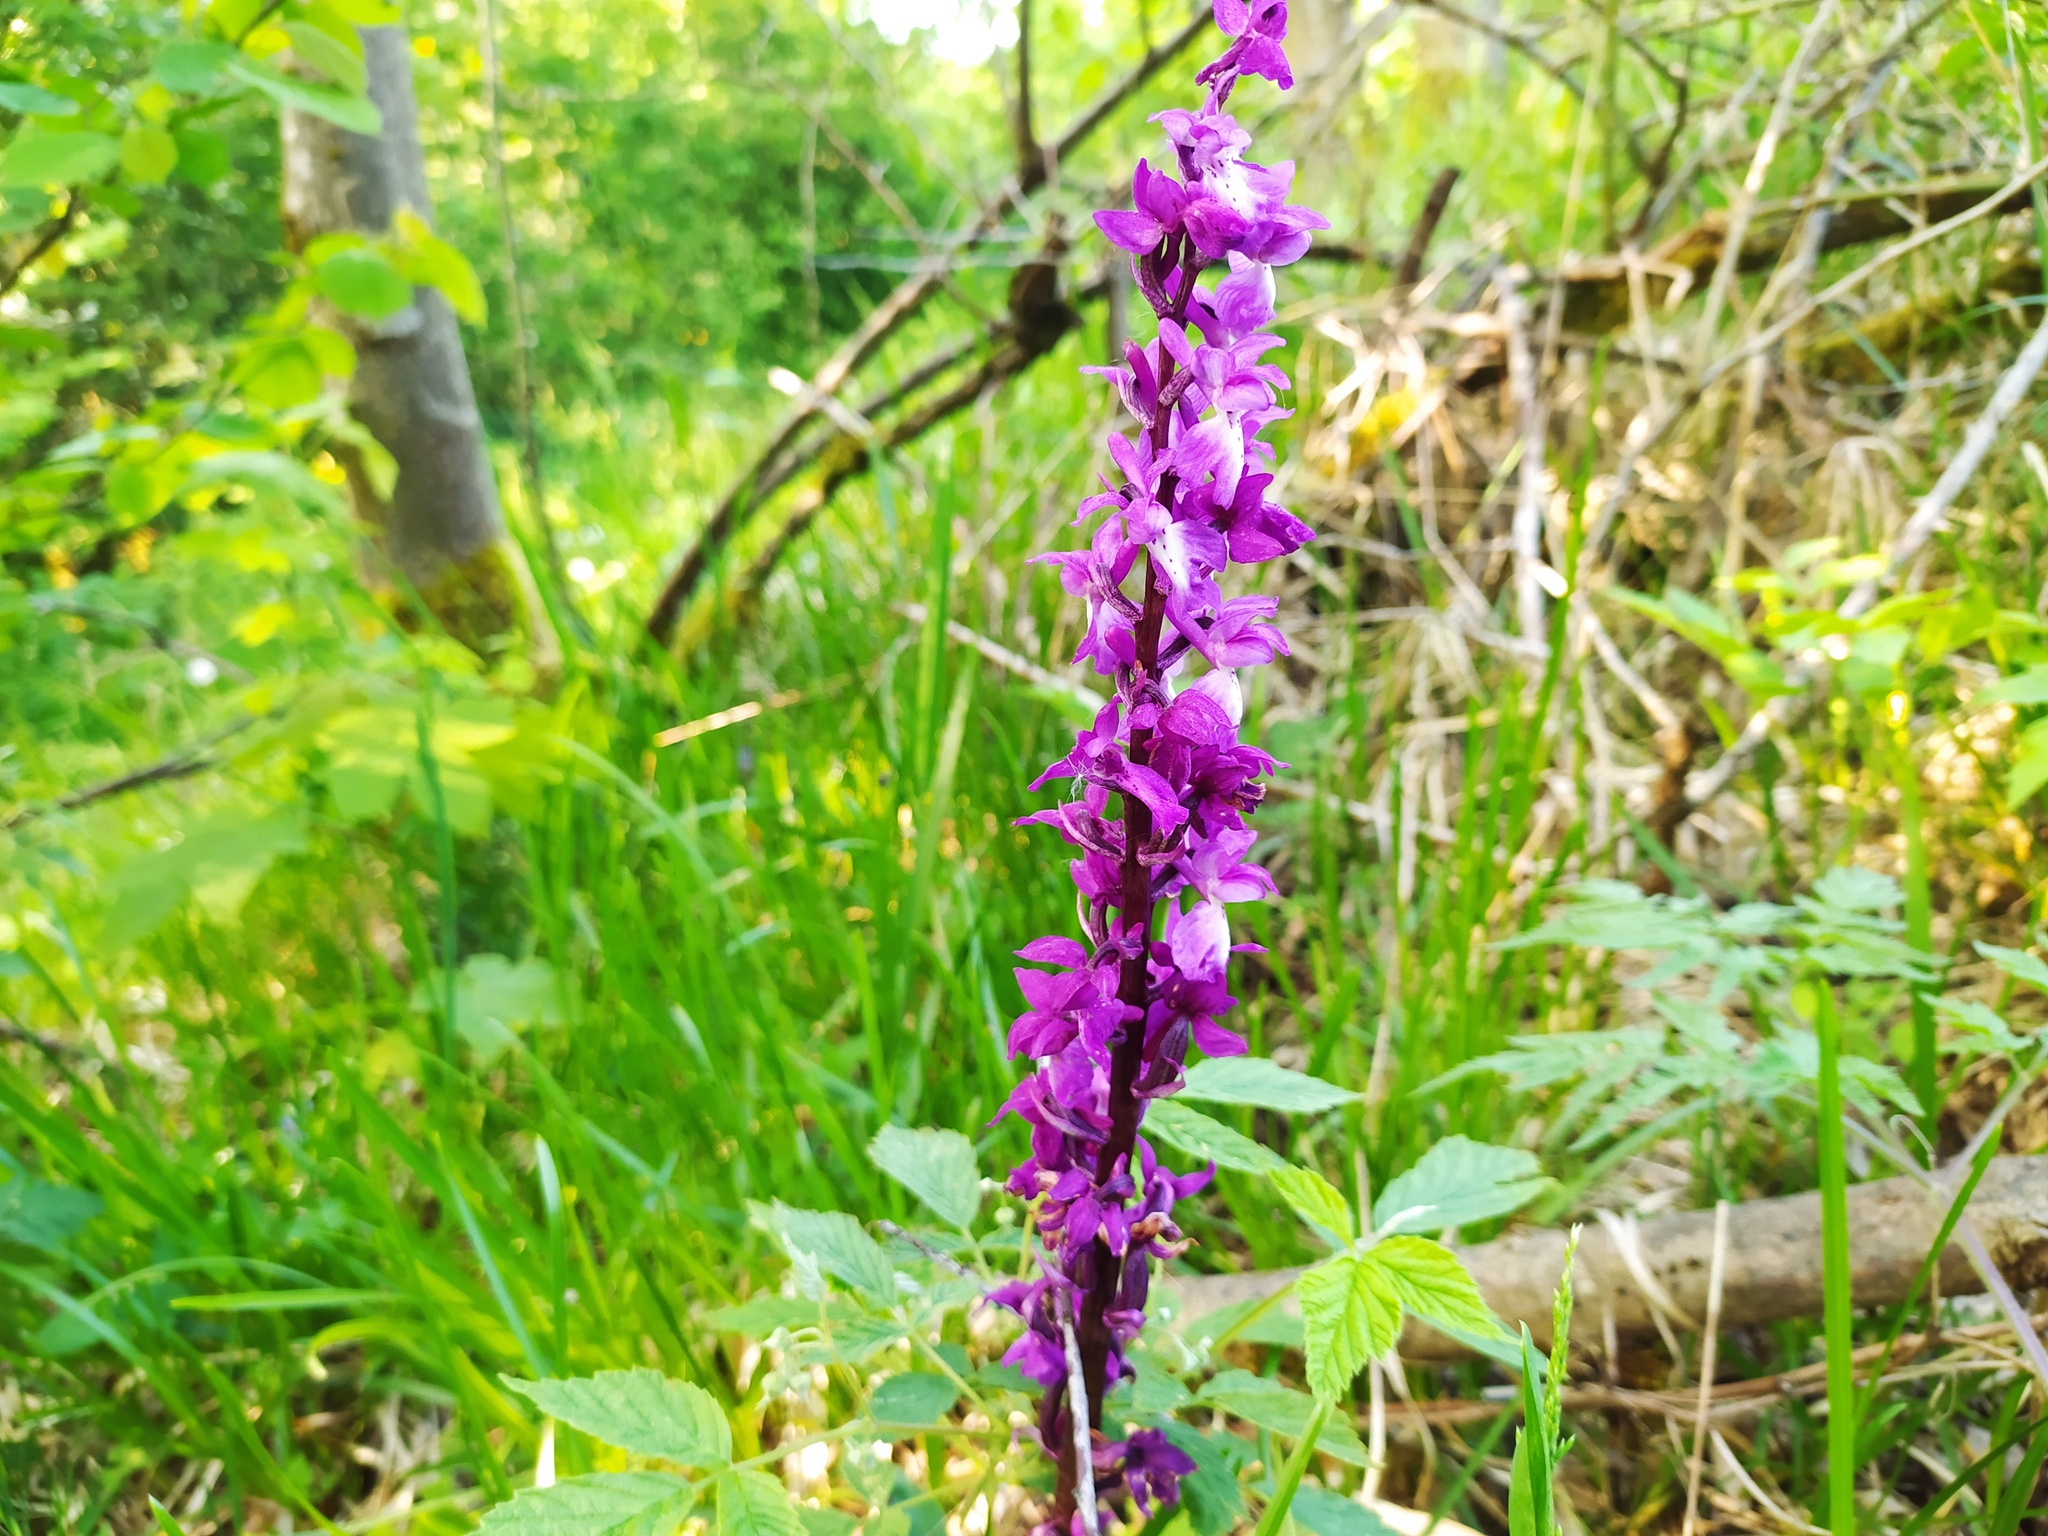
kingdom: Plantae
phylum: Tracheophyta
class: Liliopsida
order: Asparagales
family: Orchidaceae
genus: Orchis
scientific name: Orchis mascula
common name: Early-purple orchid
